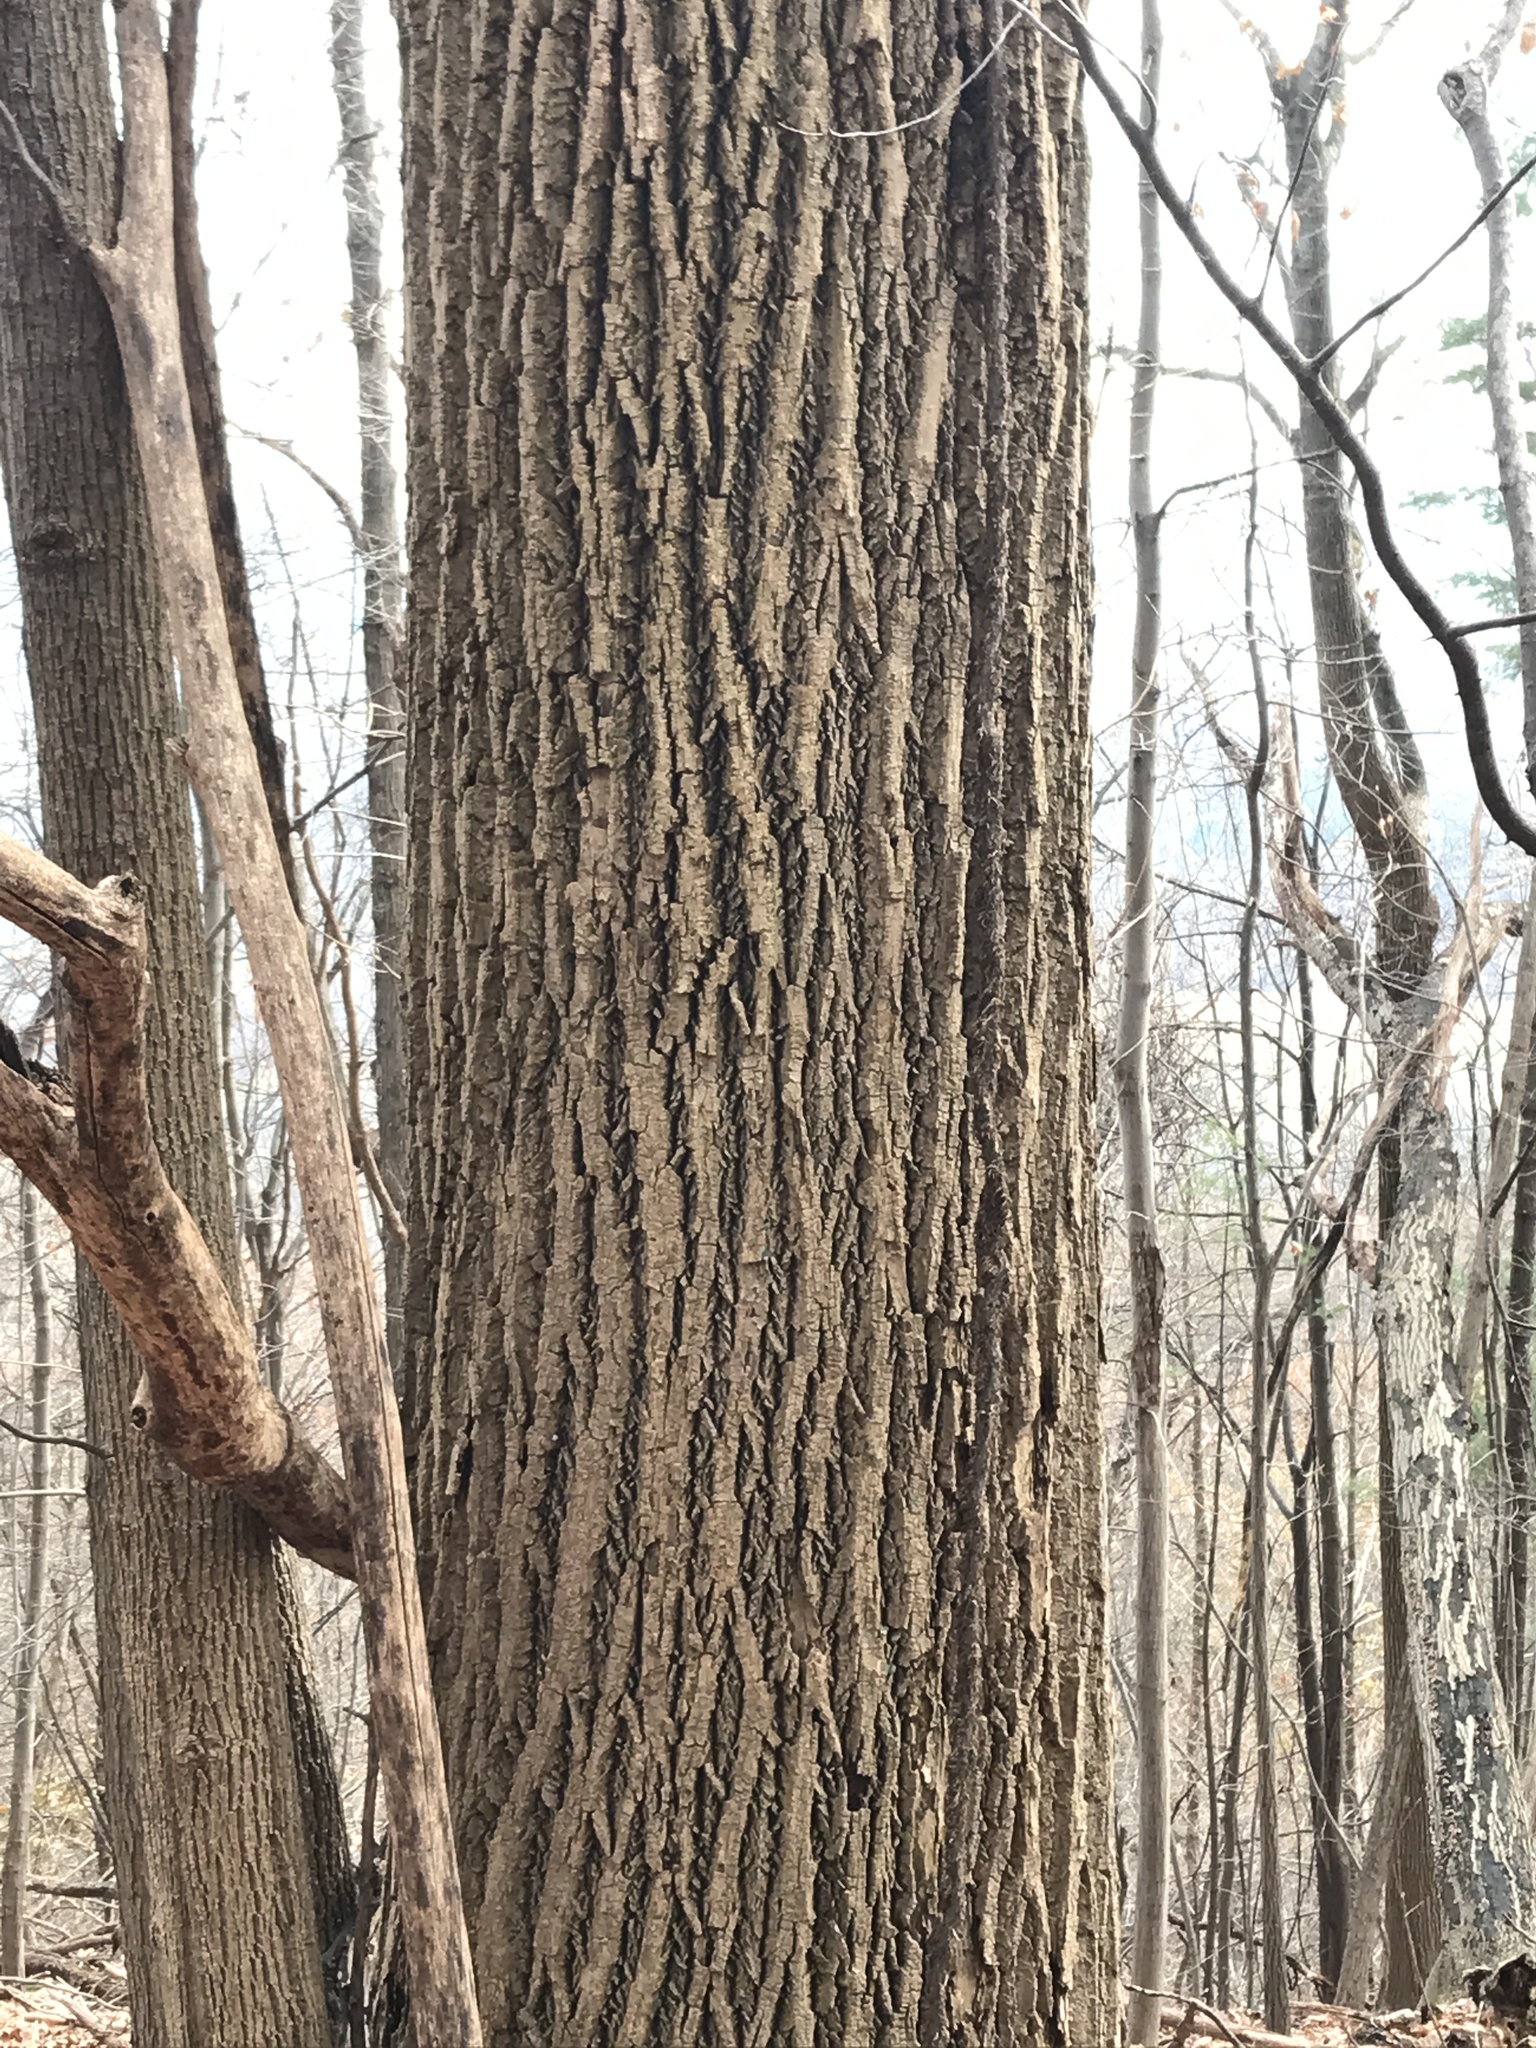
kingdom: Plantae
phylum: Tracheophyta
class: Magnoliopsida
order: Magnoliales
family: Magnoliaceae
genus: Liriodendron
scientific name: Liriodendron tulipifera
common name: Tulip tree
